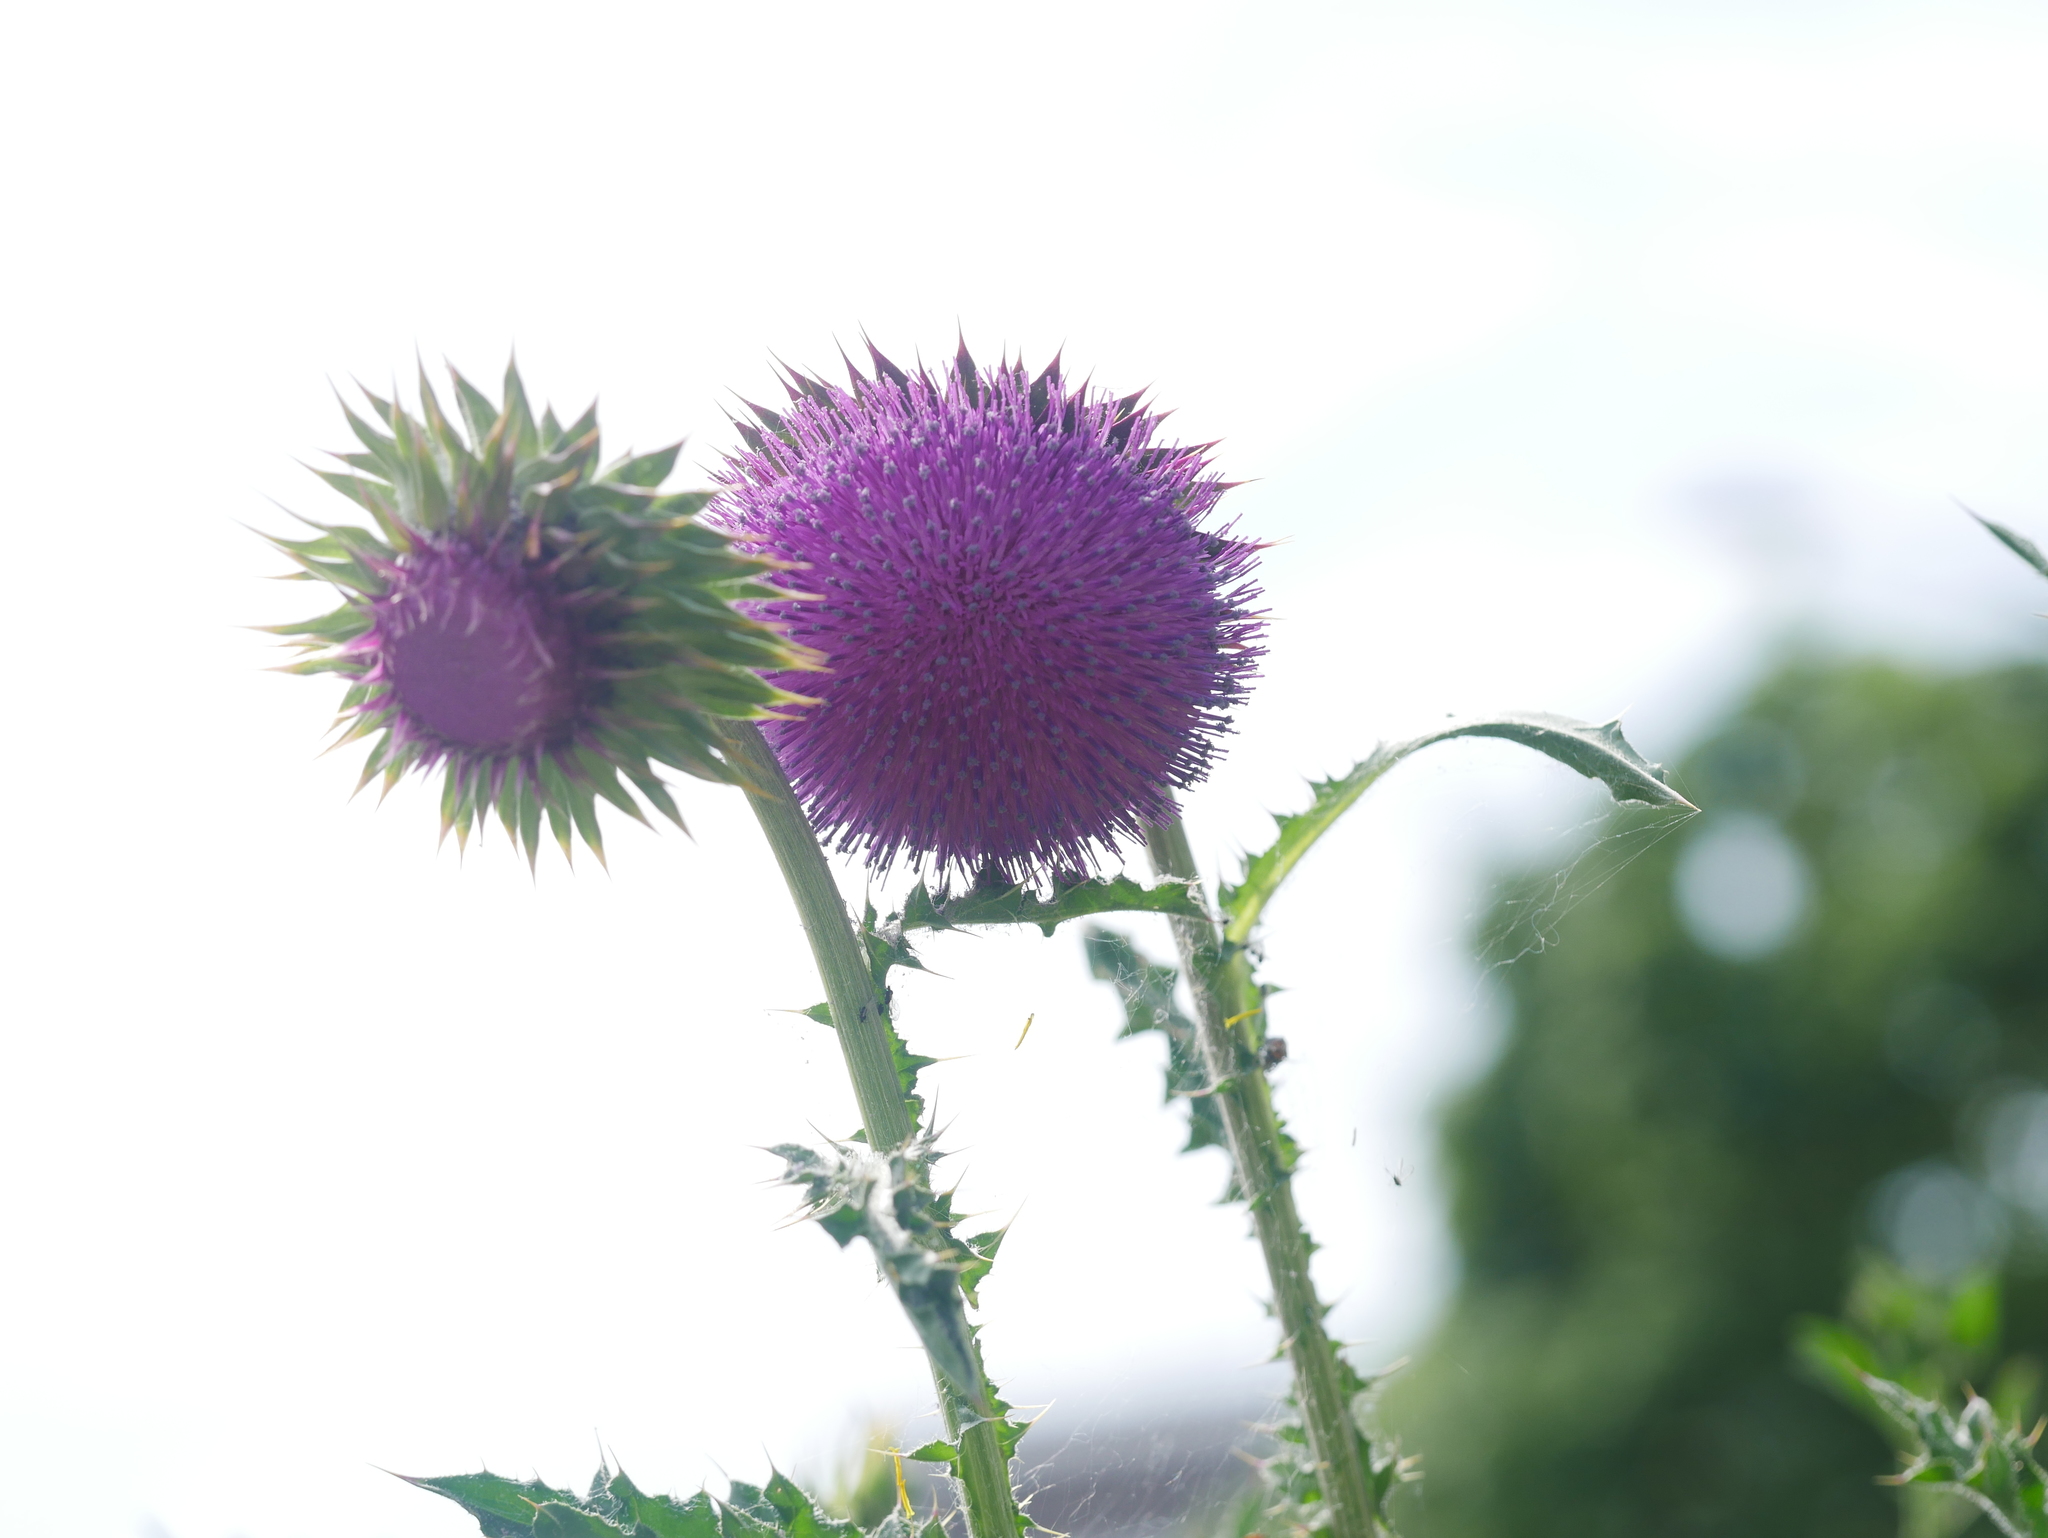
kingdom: Plantae
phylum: Tracheophyta
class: Magnoliopsida
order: Asterales
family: Asteraceae
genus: Carduus
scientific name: Carduus nutans
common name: Musk thistle
